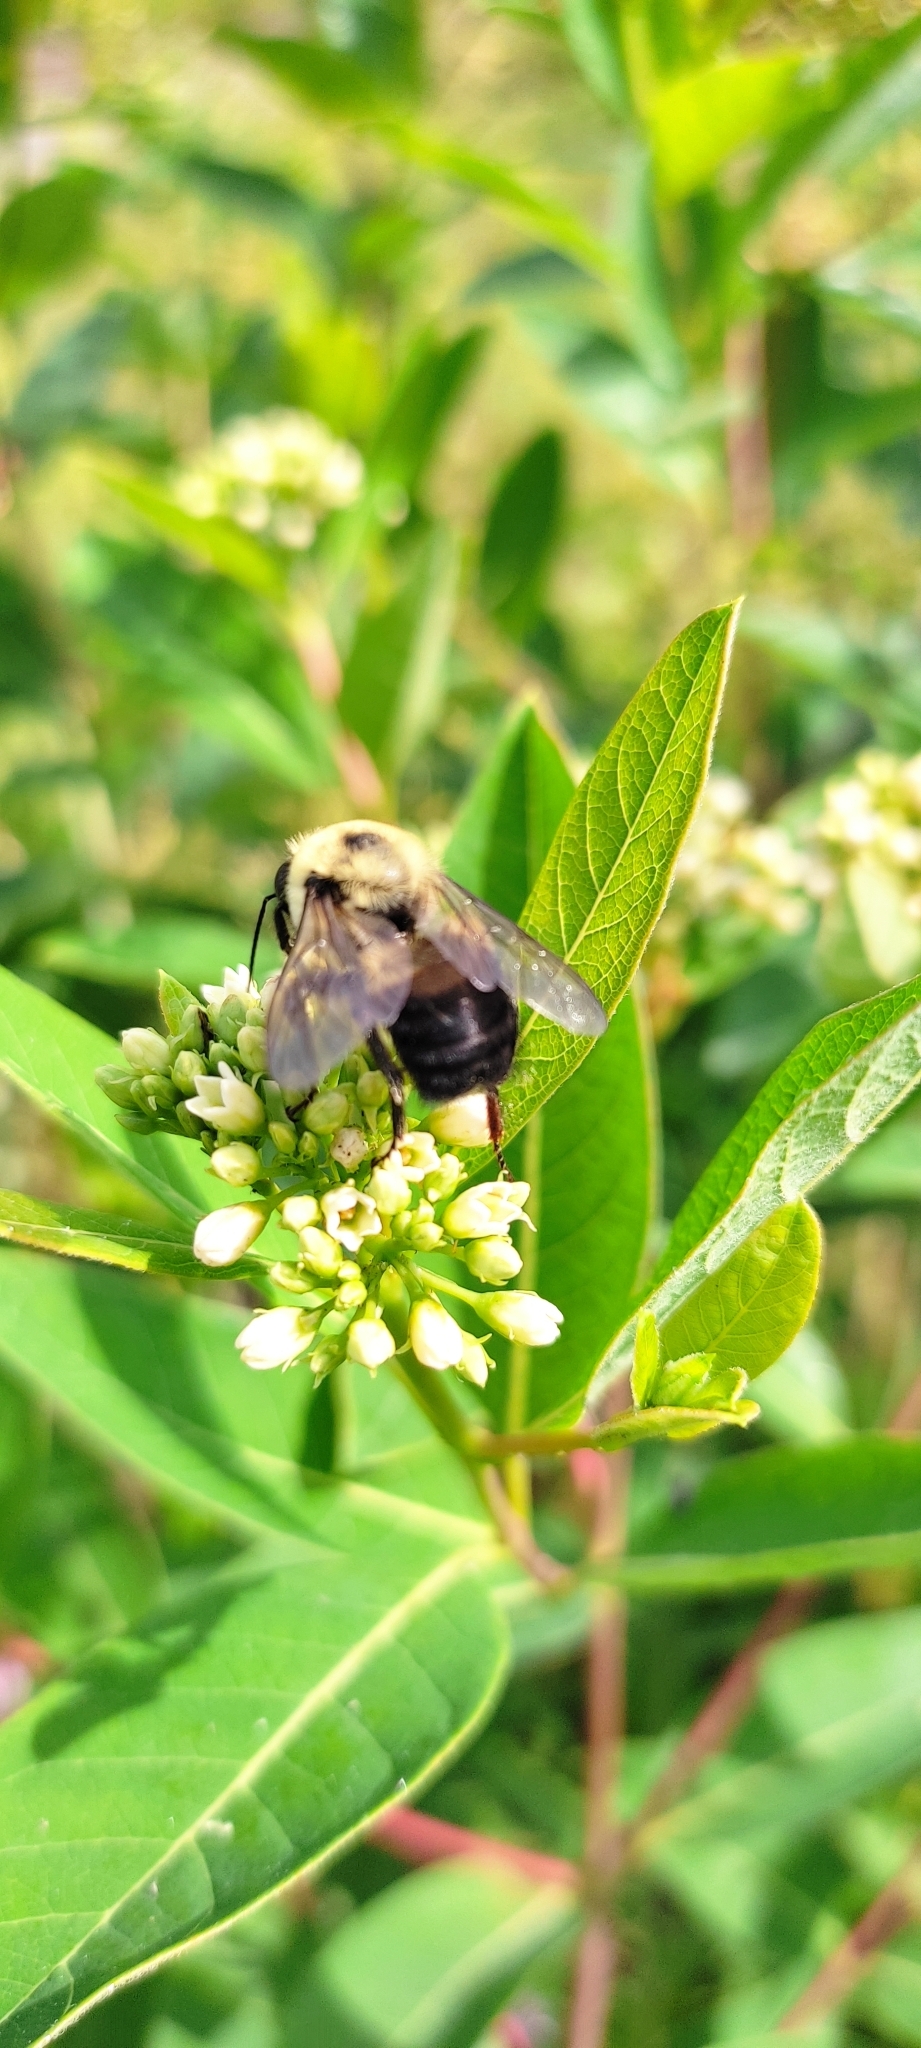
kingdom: Animalia
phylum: Arthropoda
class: Insecta
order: Hymenoptera
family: Apidae
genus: Bombus
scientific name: Bombus griseocollis
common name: Brown-belted bumble bee
